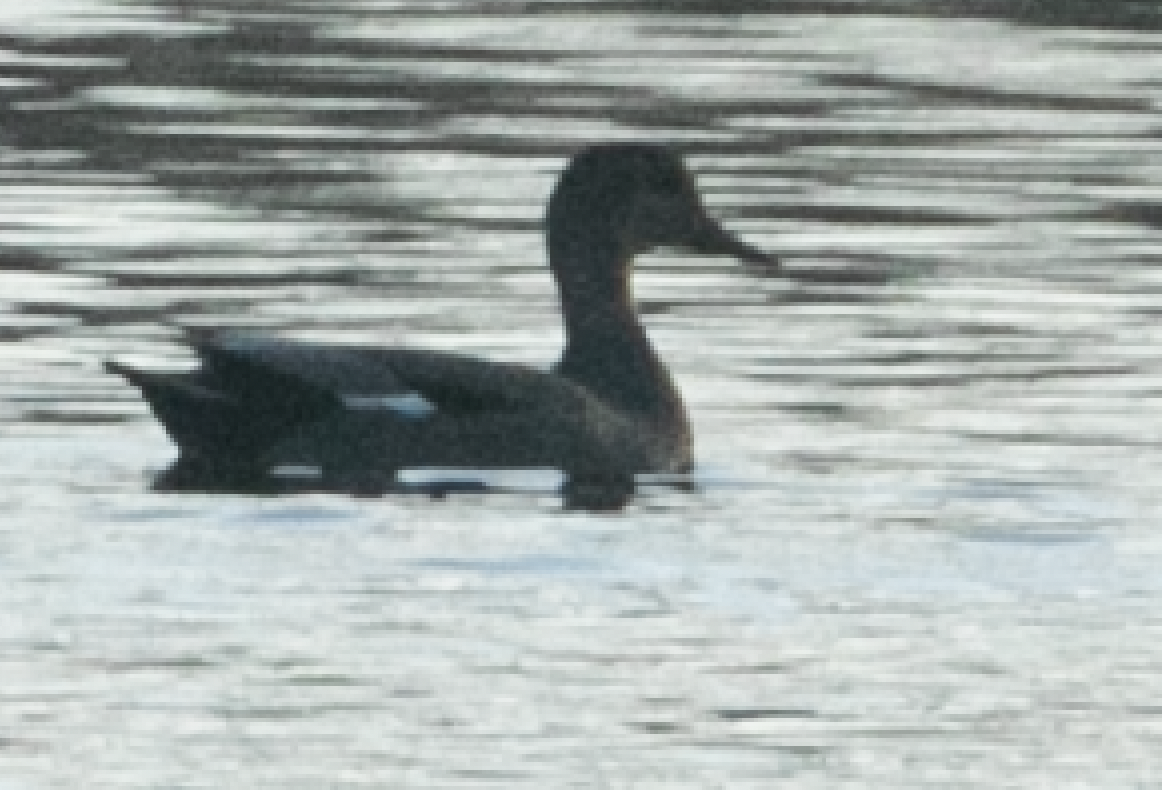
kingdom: Animalia
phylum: Chordata
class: Aves
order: Anseriformes
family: Anatidae
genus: Mareca
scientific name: Mareca strepera
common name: Gadwall
